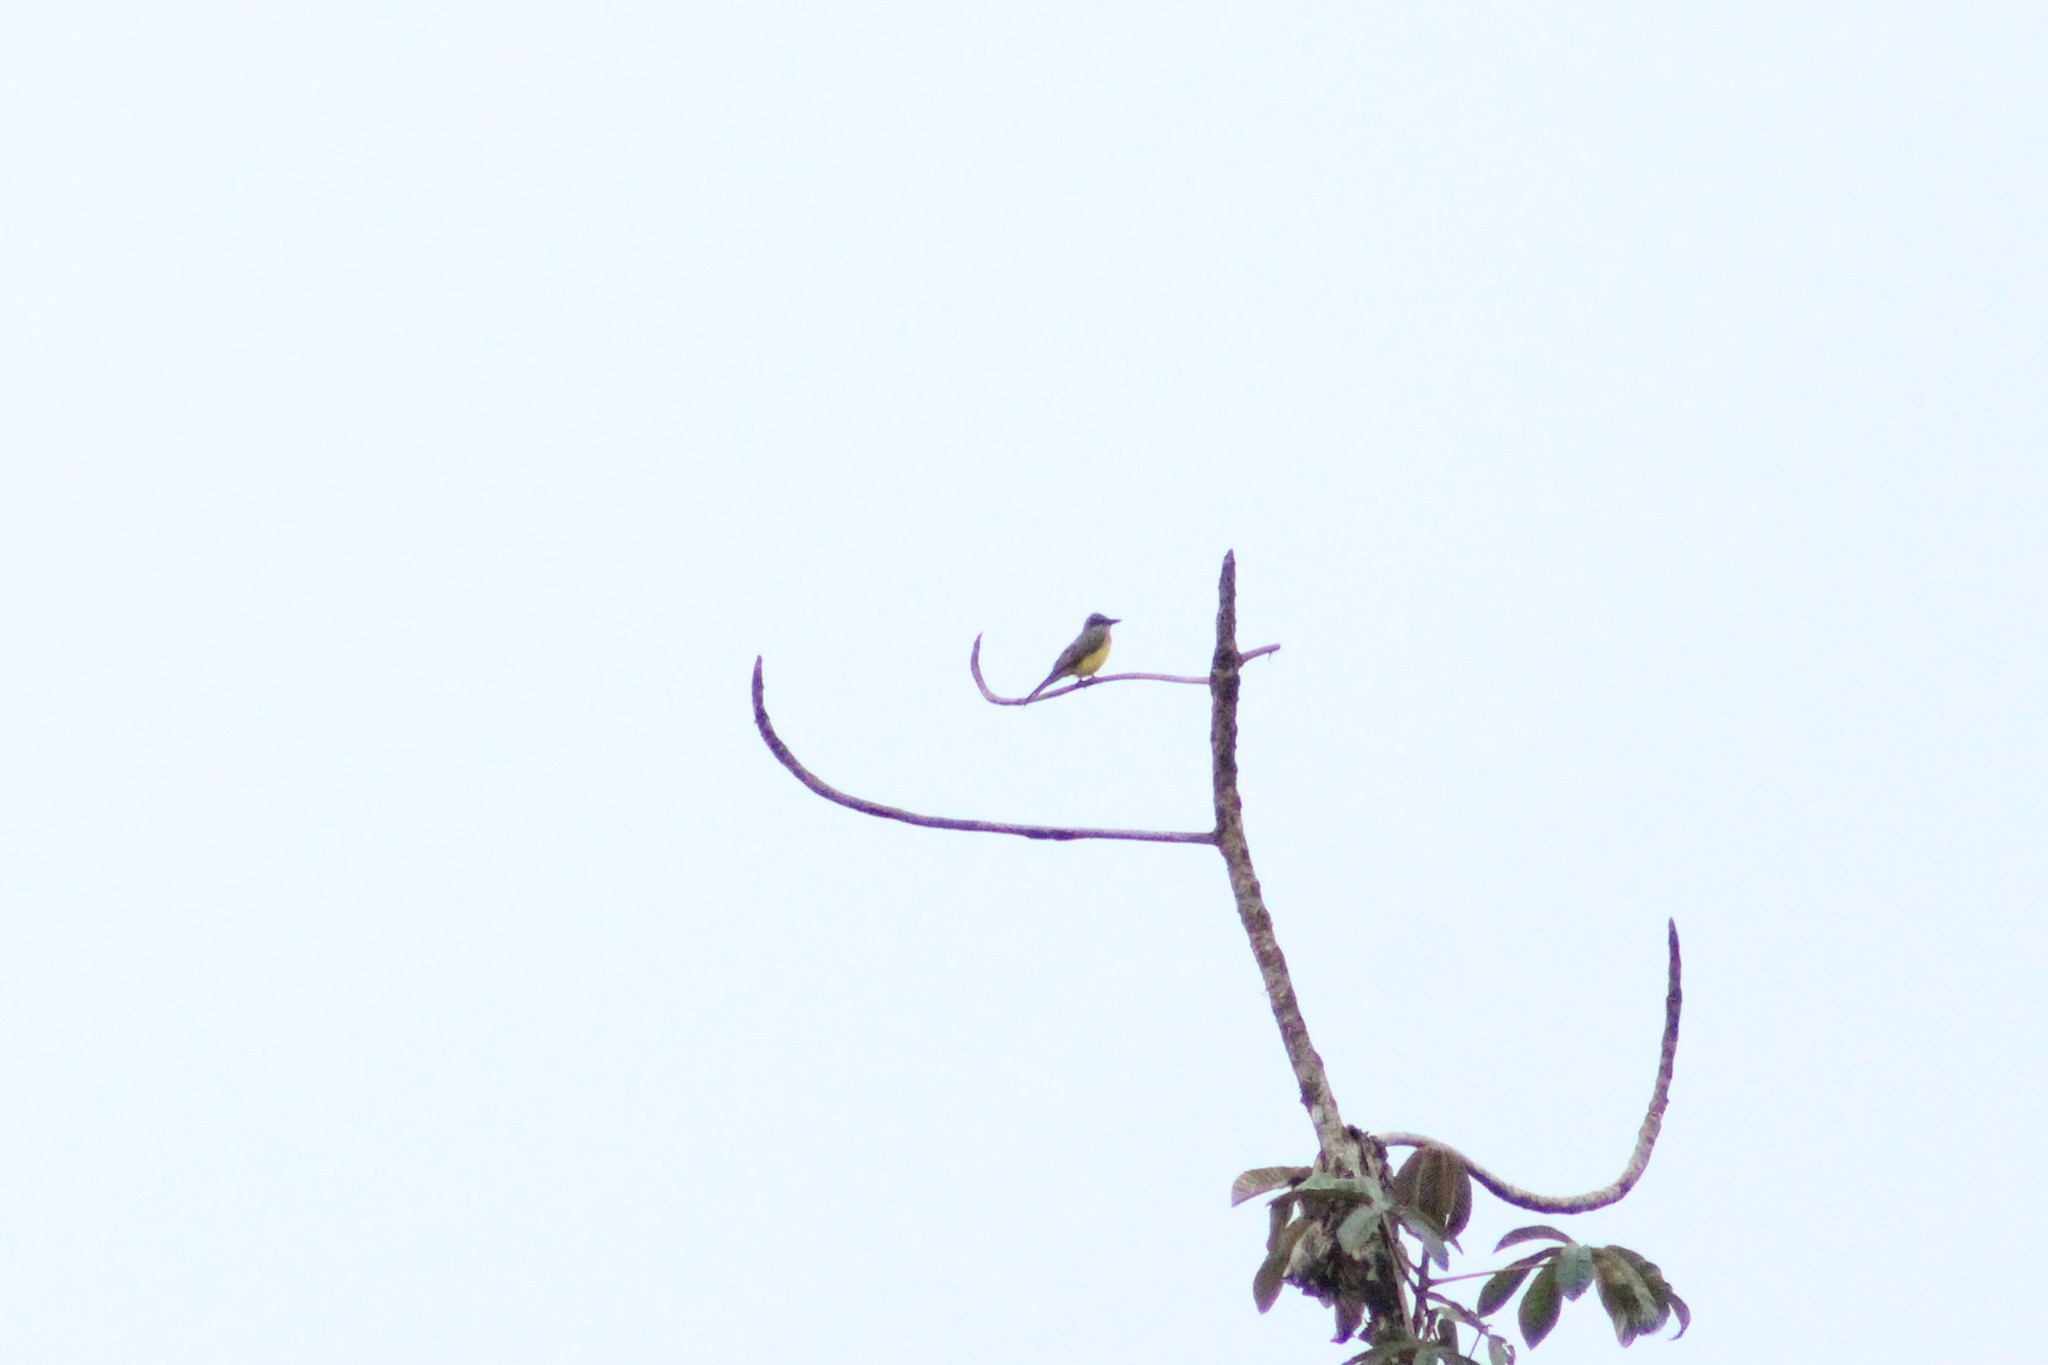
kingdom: Animalia
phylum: Chordata
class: Aves
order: Passeriformes
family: Tyrannidae
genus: Tyrannus
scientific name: Tyrannus melancholicus
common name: Tropical kingbird
